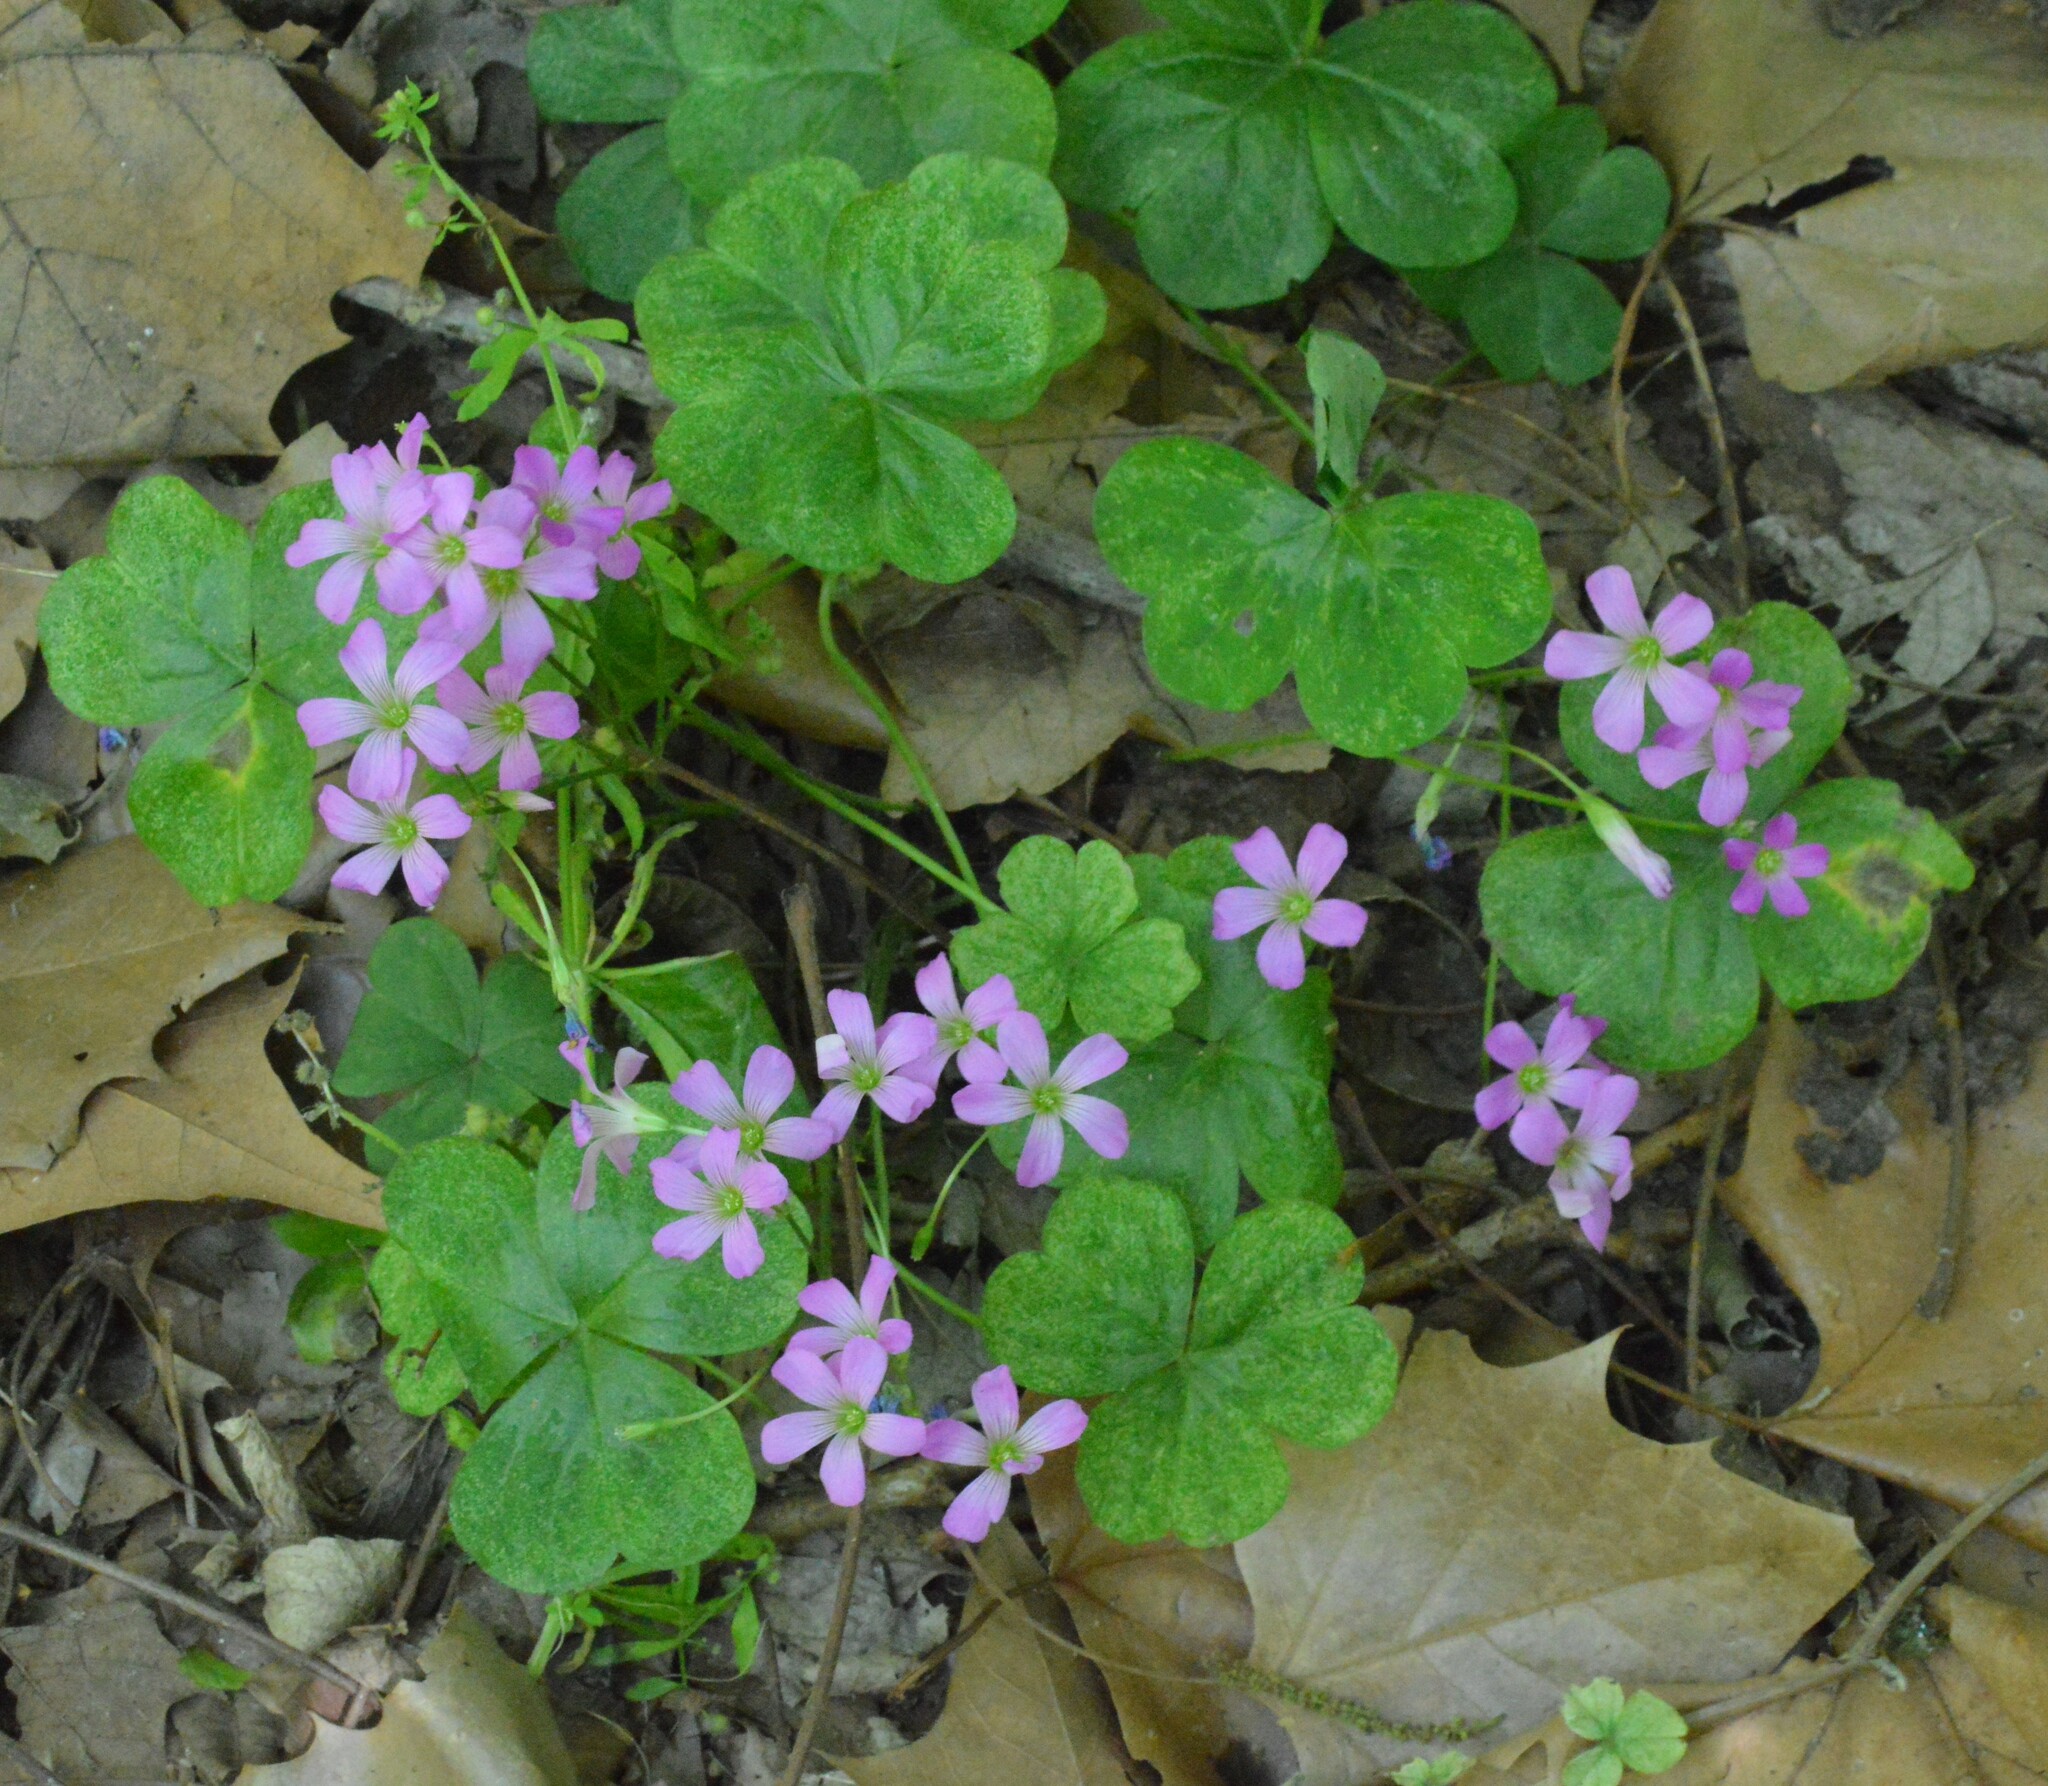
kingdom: Plantae
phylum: Tracheophyta
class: Magnoliopsida
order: Oxalidales
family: Oxalidaceae
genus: Oxalis
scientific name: Oxalis debilis
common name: Large-flowered pink-sorrel
